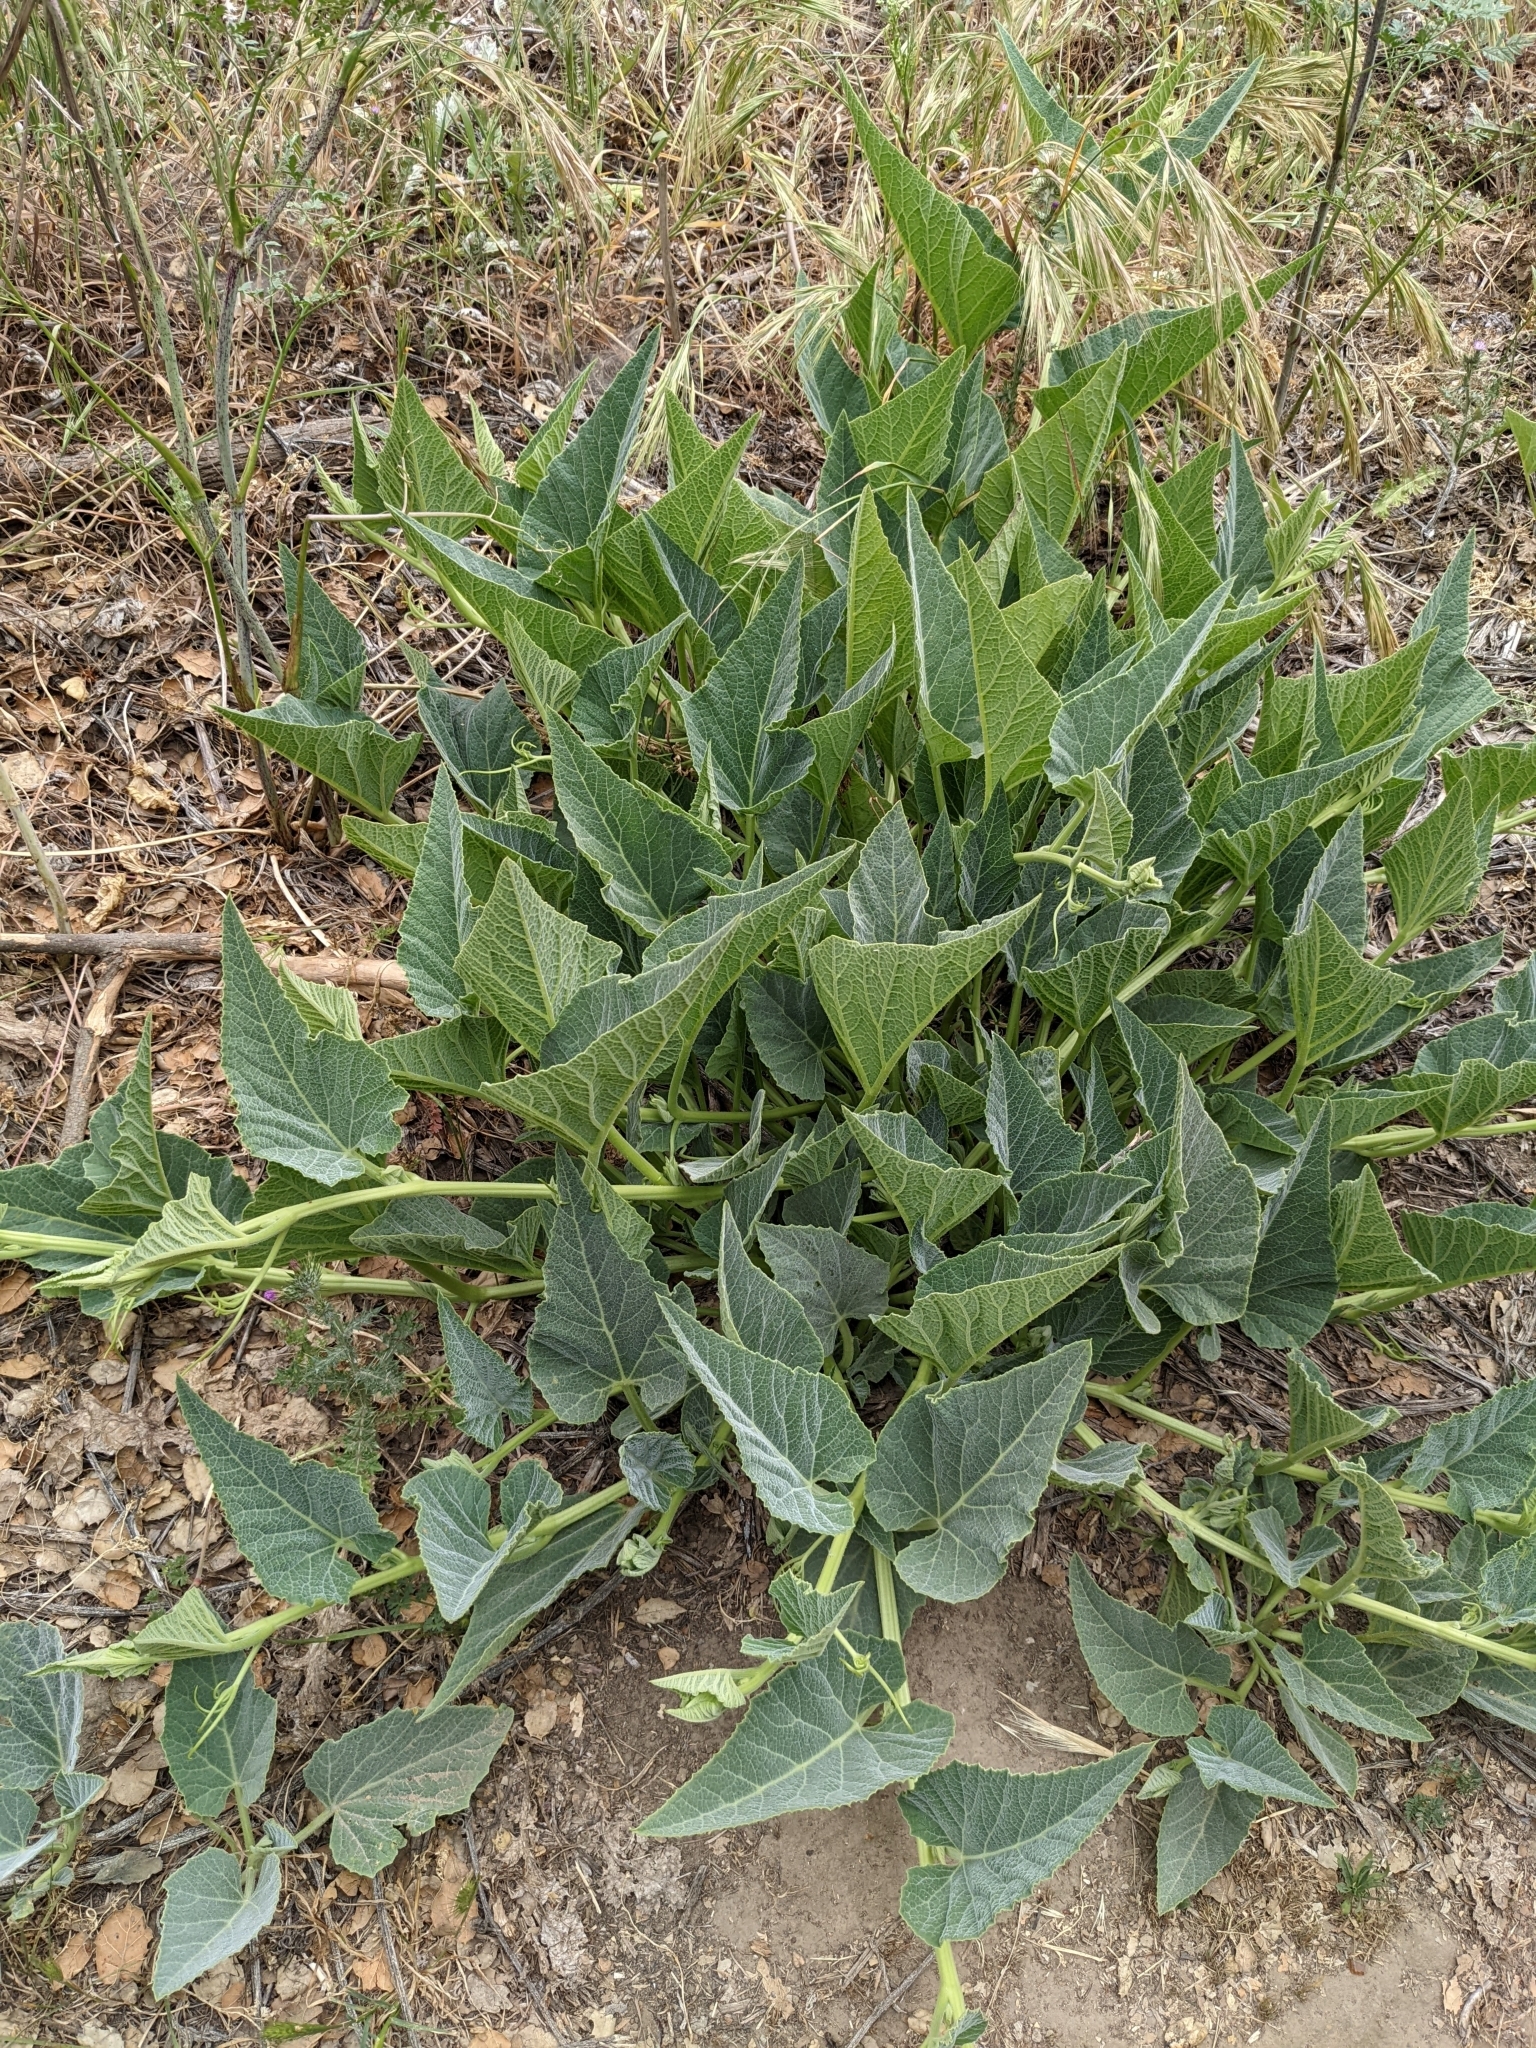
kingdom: Plantae
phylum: Tracheophyta
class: Magnoliopsida
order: Cucurbitales
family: Cucurbitaceae
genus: Cucurbita
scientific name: Cucurbita foetidissima
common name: Buffalo gourd
